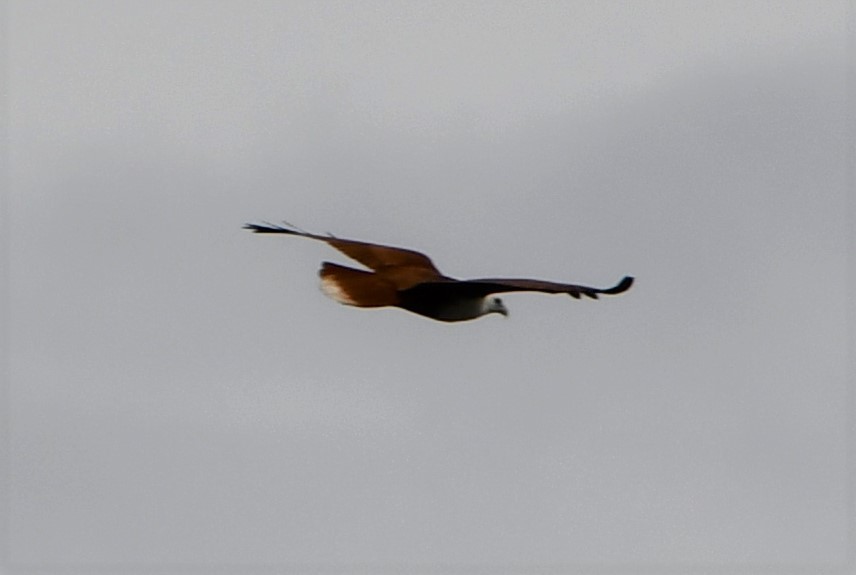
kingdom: Animalia
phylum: Chordata
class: Aves
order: Accipitriformes
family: Accipitridae
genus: Haliastur
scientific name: Haliastur indus
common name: Brahminy kite
